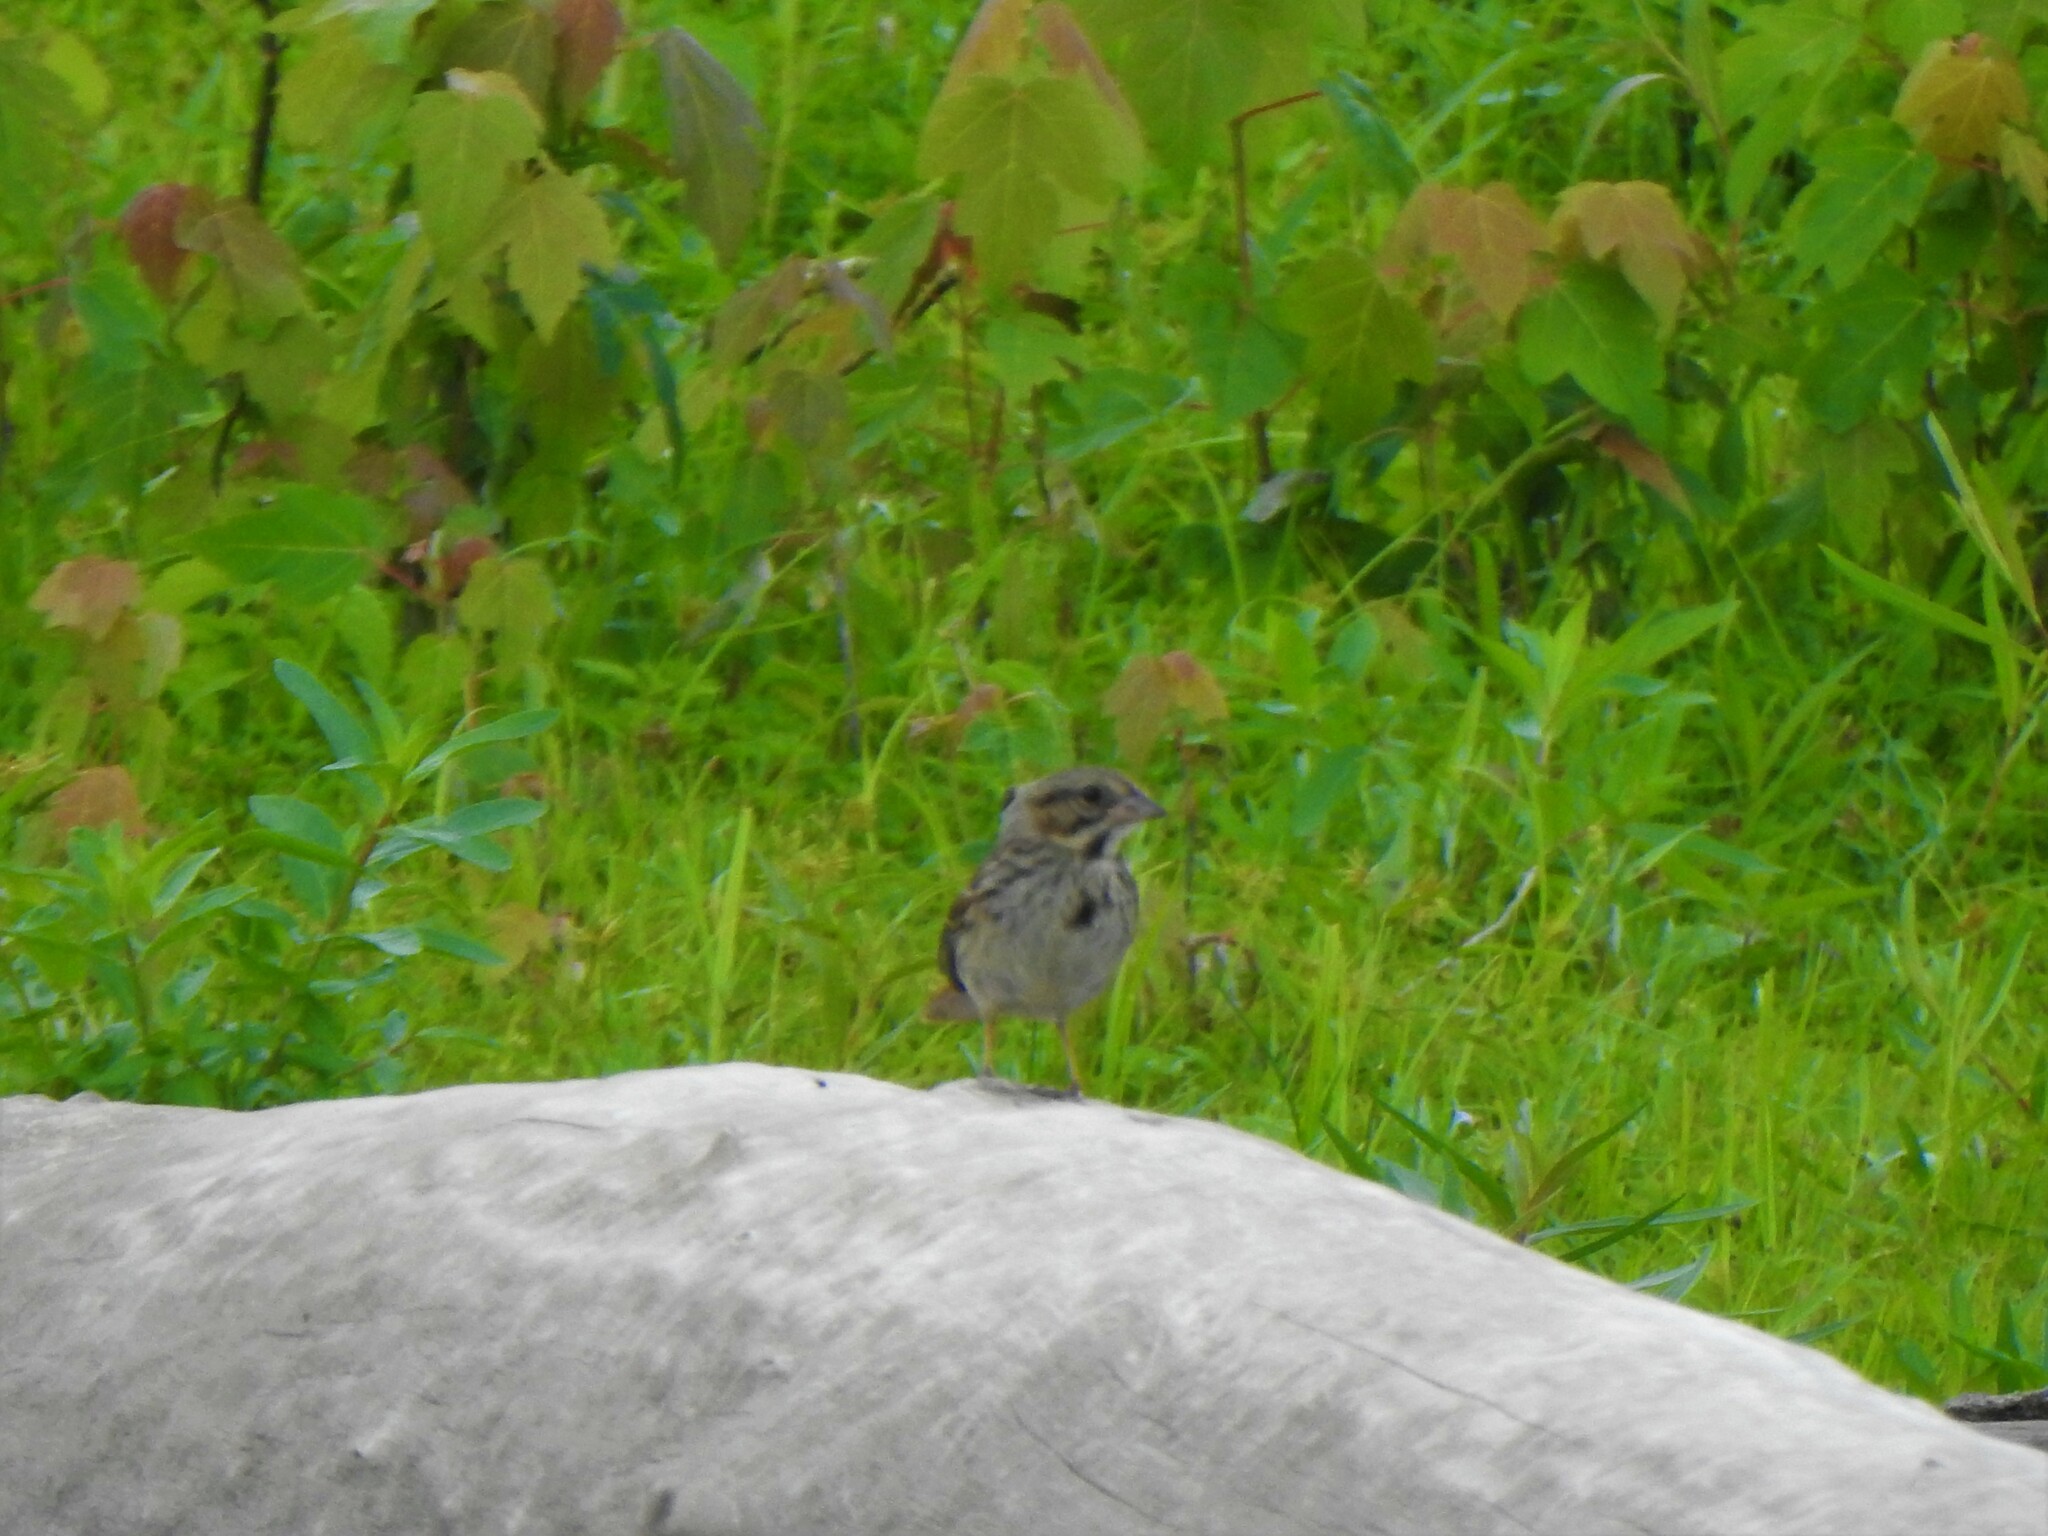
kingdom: Animalia
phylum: Chordata
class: Aves
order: Passeriformes
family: Passerellidae
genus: Melospiza
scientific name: Melospiza melodia
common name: Song sparrow
